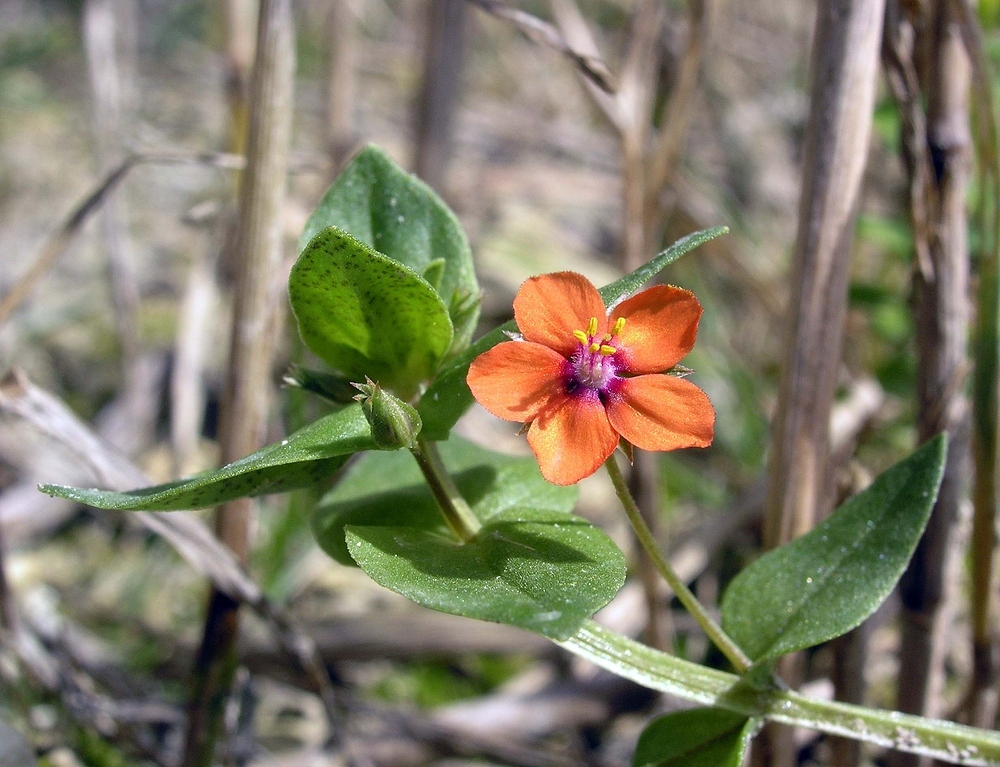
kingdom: Plantae
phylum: Tracheophyta
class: Magnoliopsida
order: Ericales
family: Primulaceae
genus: Lysimachia
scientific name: Lysimachia arvensis
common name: Scarlet pimpernel
